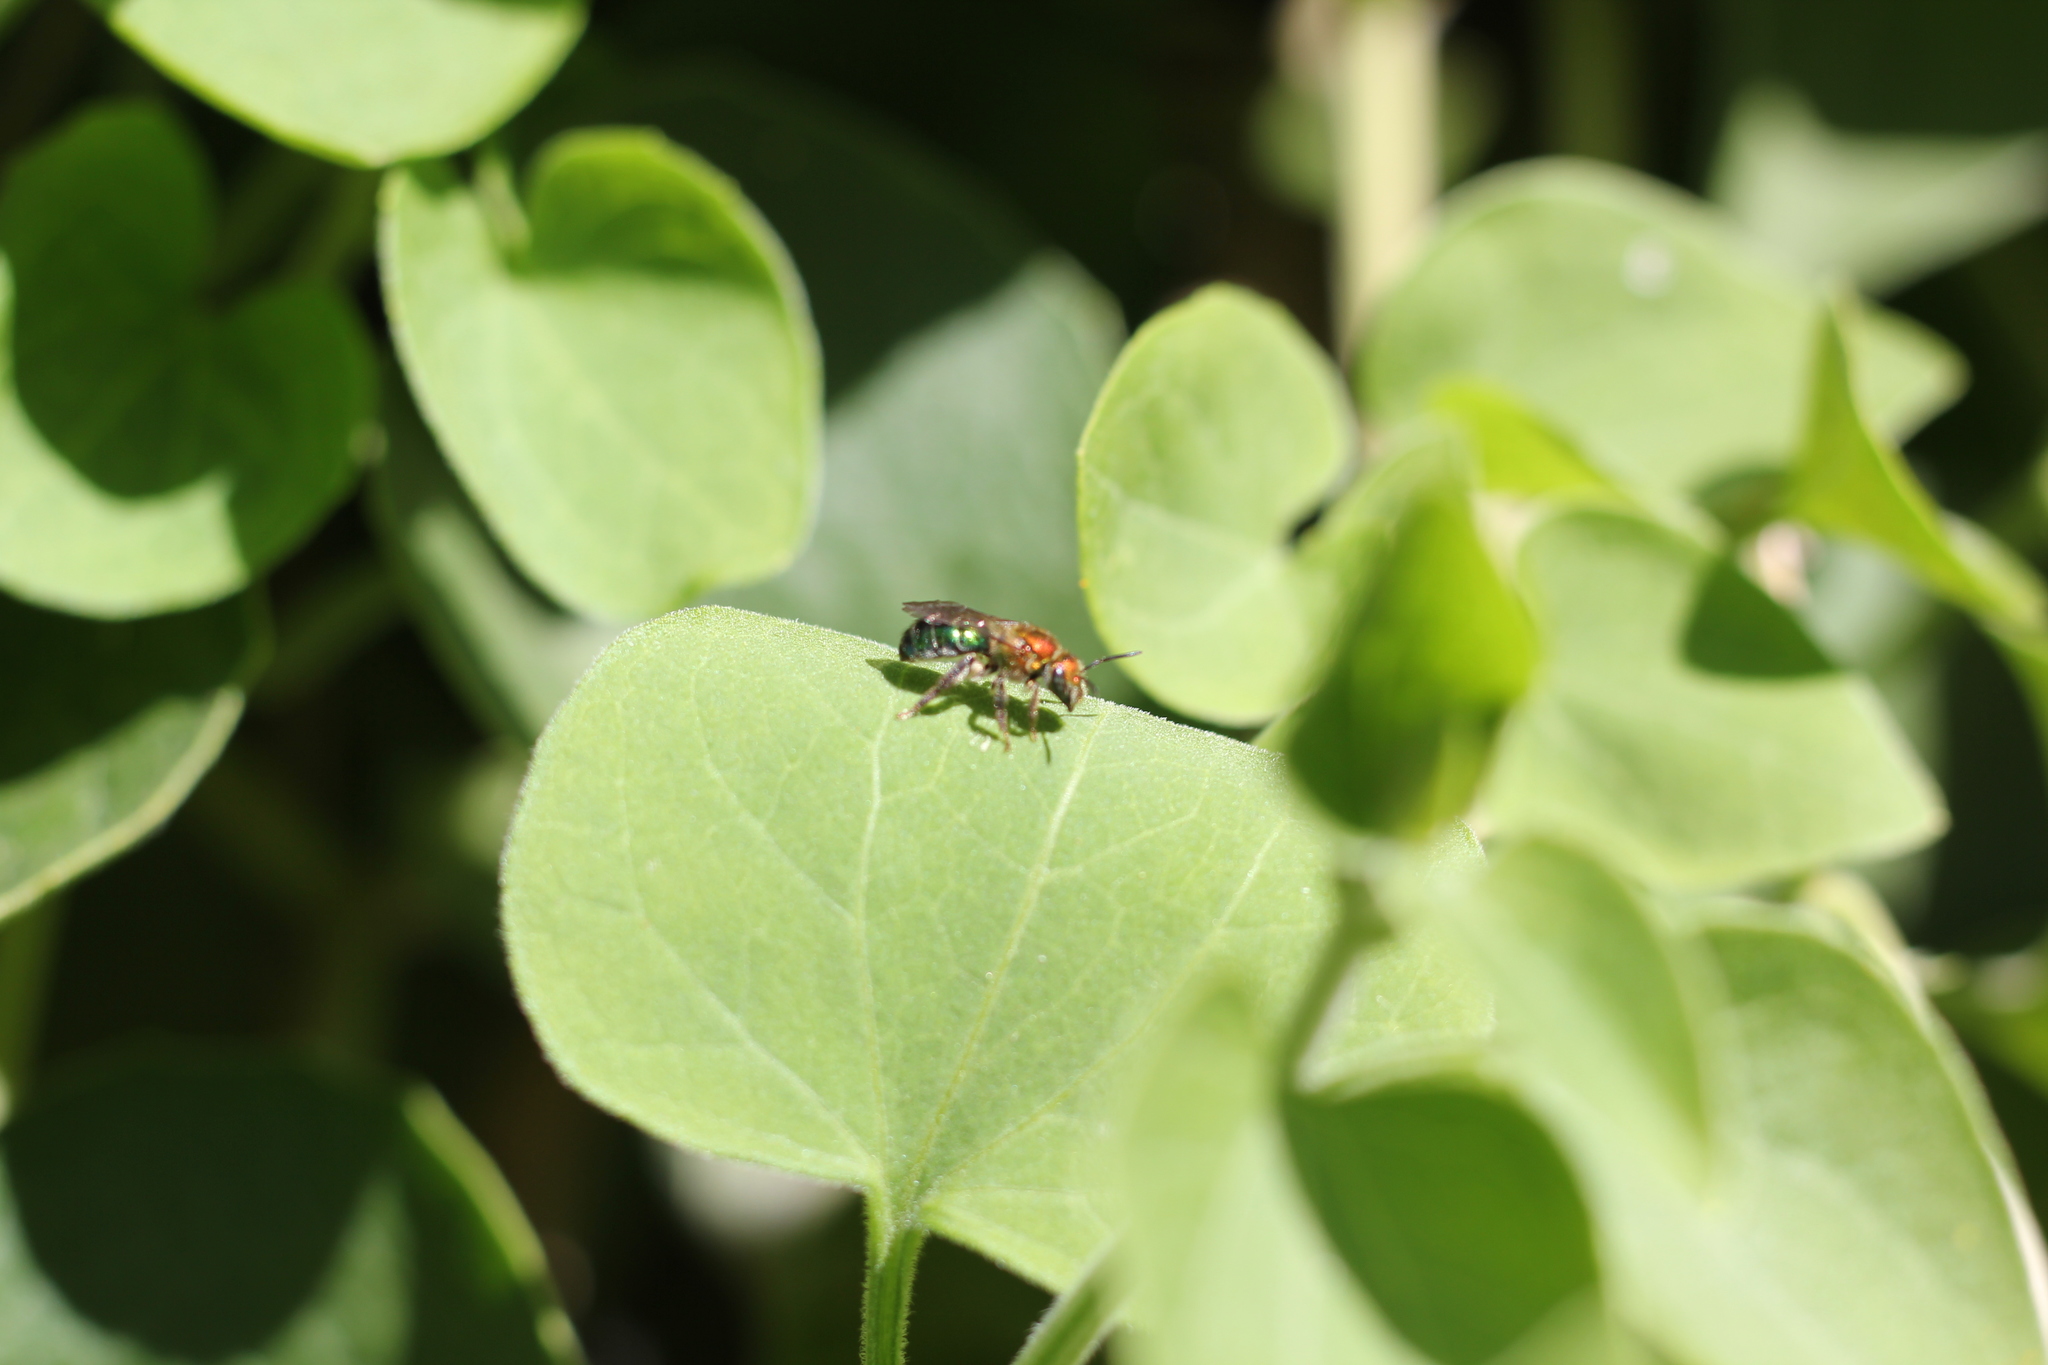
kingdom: Animalia
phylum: Arthropoda
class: Insecta
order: Hymenoptera
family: Halictidae
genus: Augochloropsis
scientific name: Augochloropsis tupacamaru
